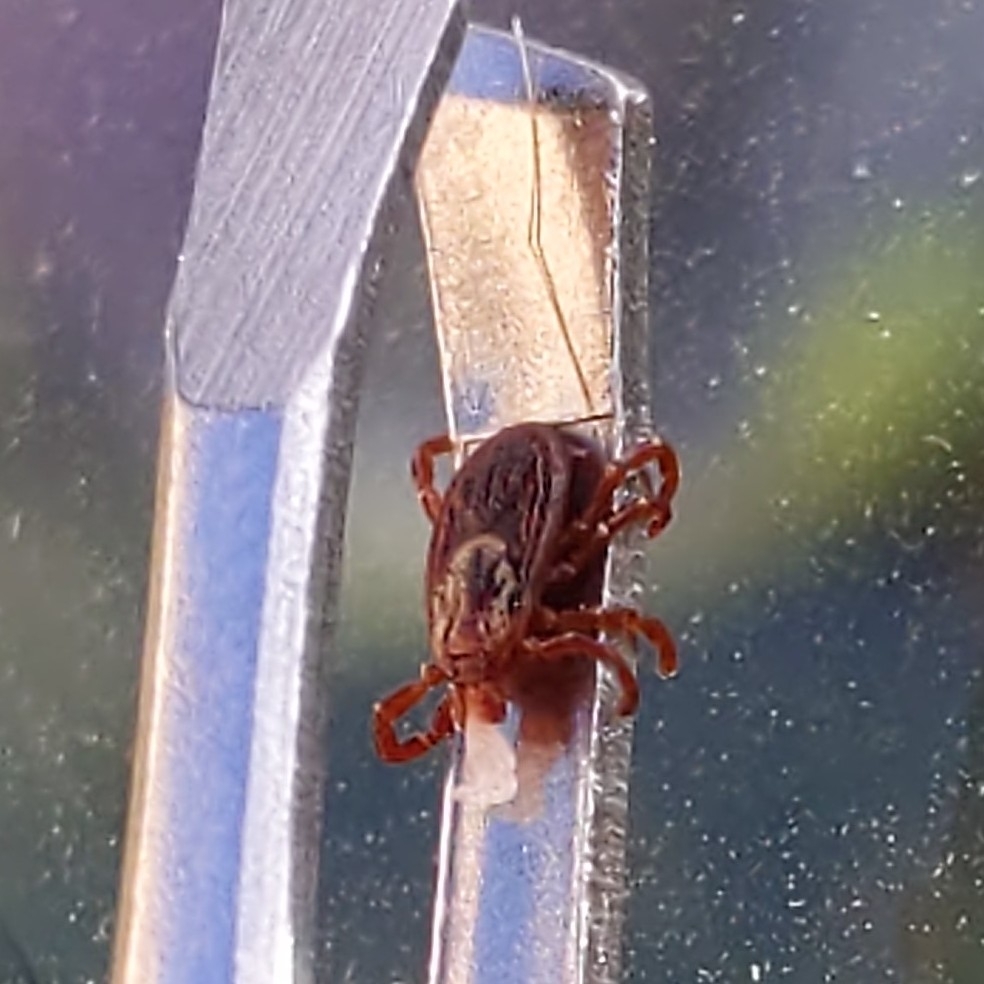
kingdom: Animalia
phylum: Arthropoda
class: Arachnida
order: Ixodida
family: Ixodidae
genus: Dermacentor
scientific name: Dermacentor variabilis
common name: American dog tick
